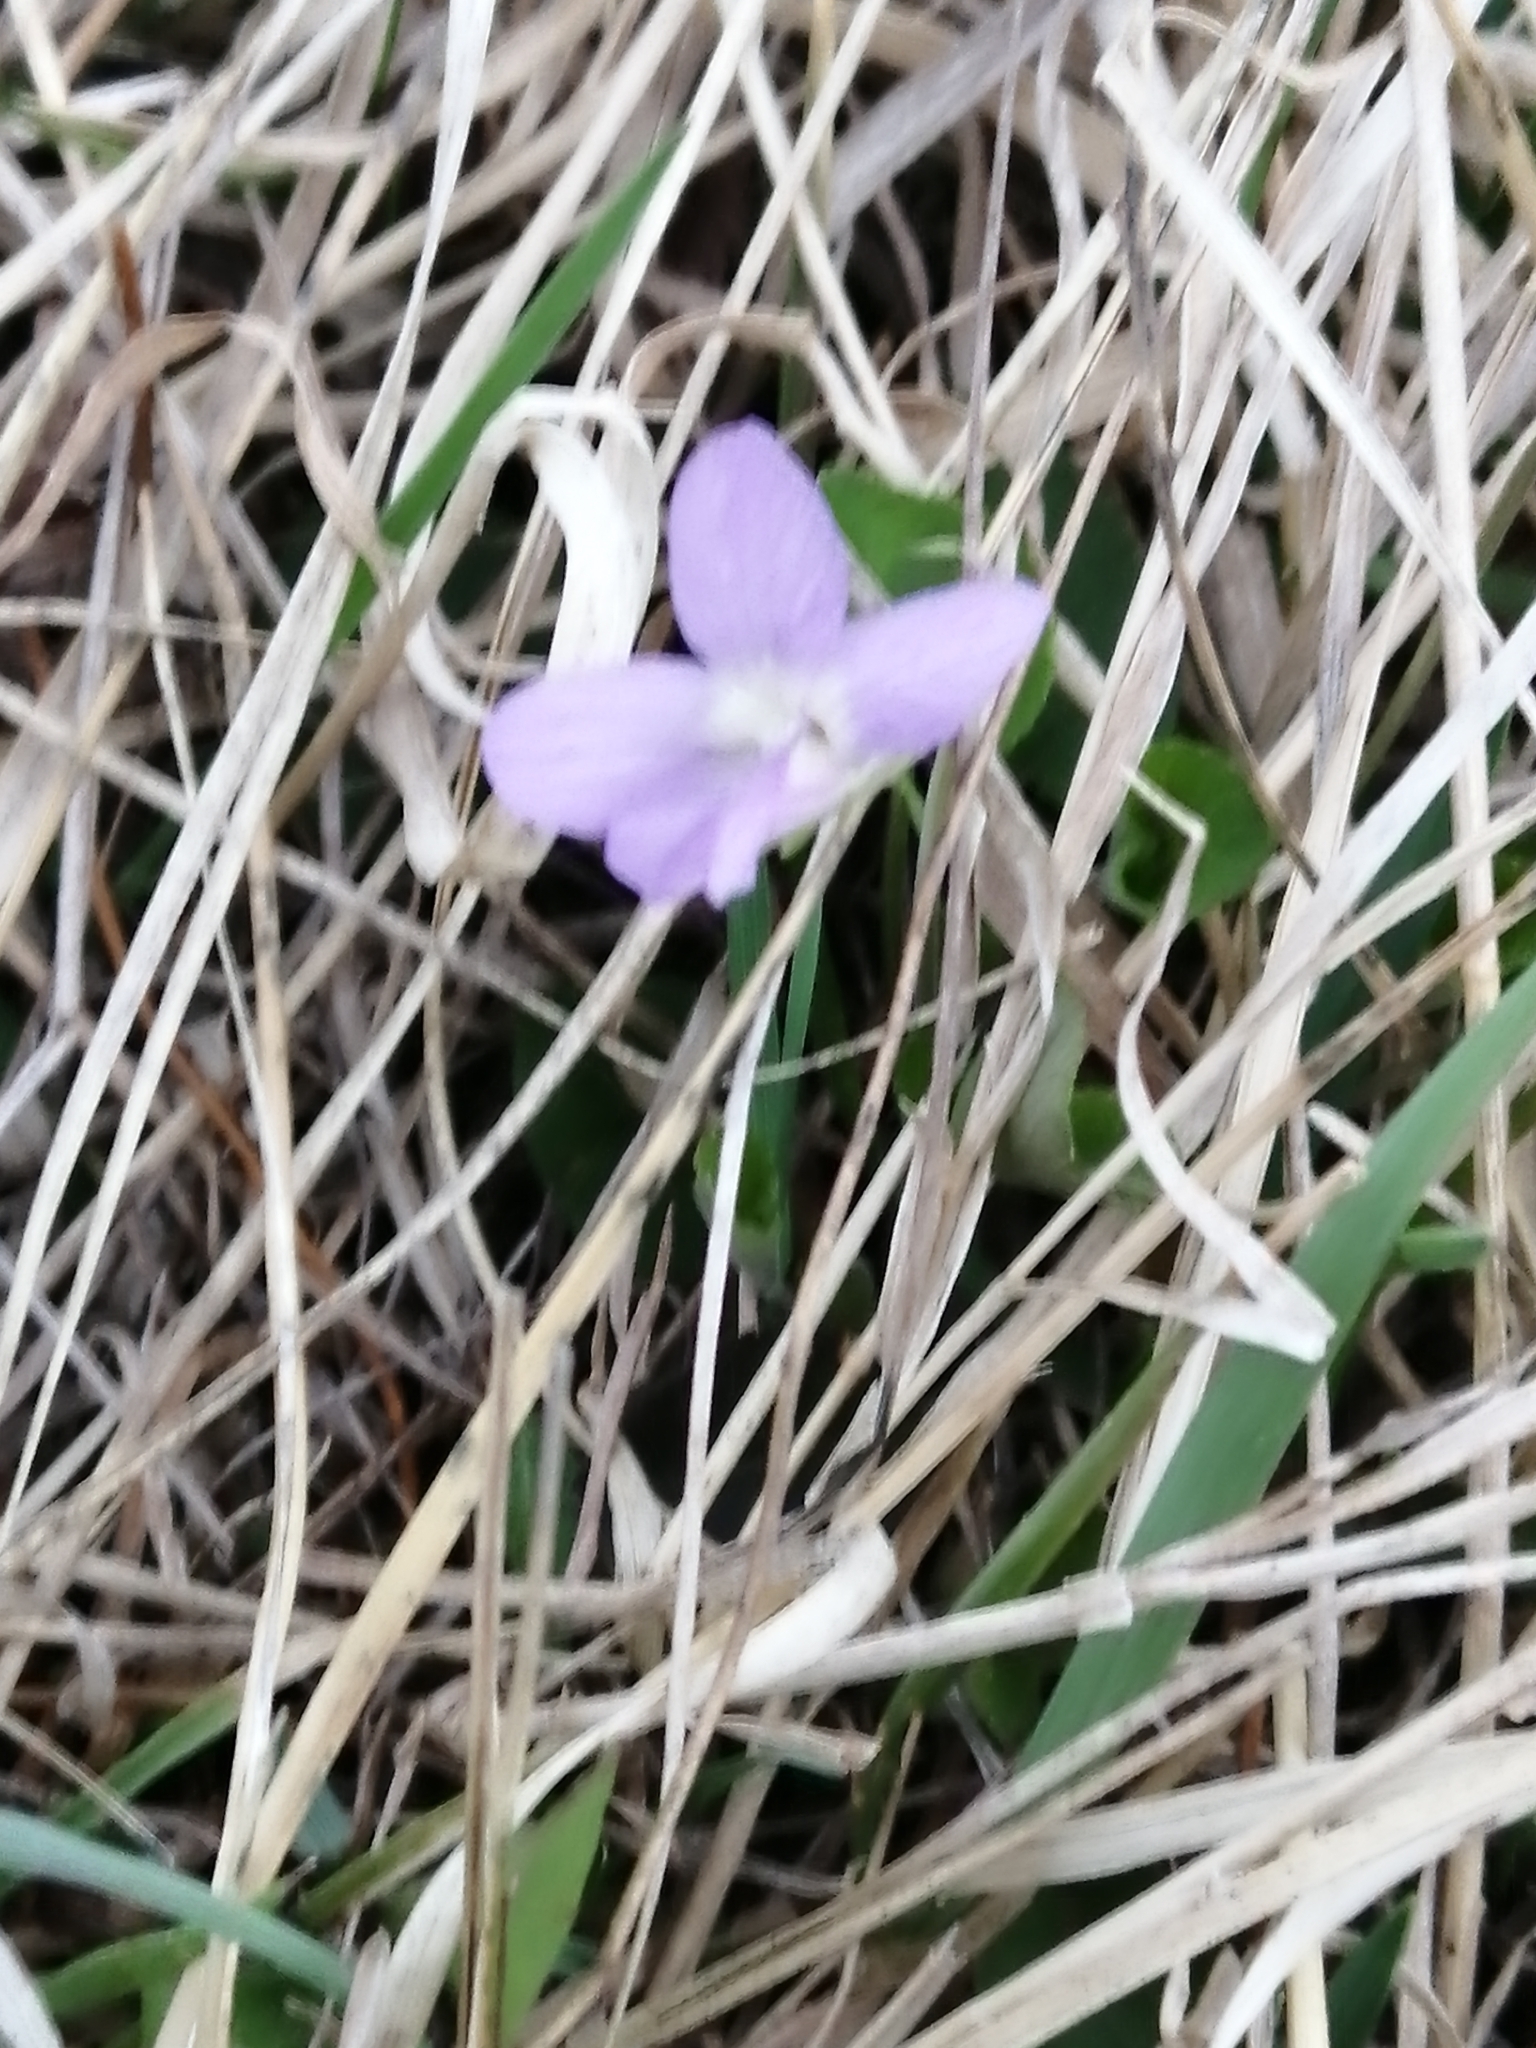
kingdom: Plantae
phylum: Tracheophyta
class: Magnoliopsida
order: Malpighiales
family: Violaceae
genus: Viola
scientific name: Viola rupestris
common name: Teesdale violet
